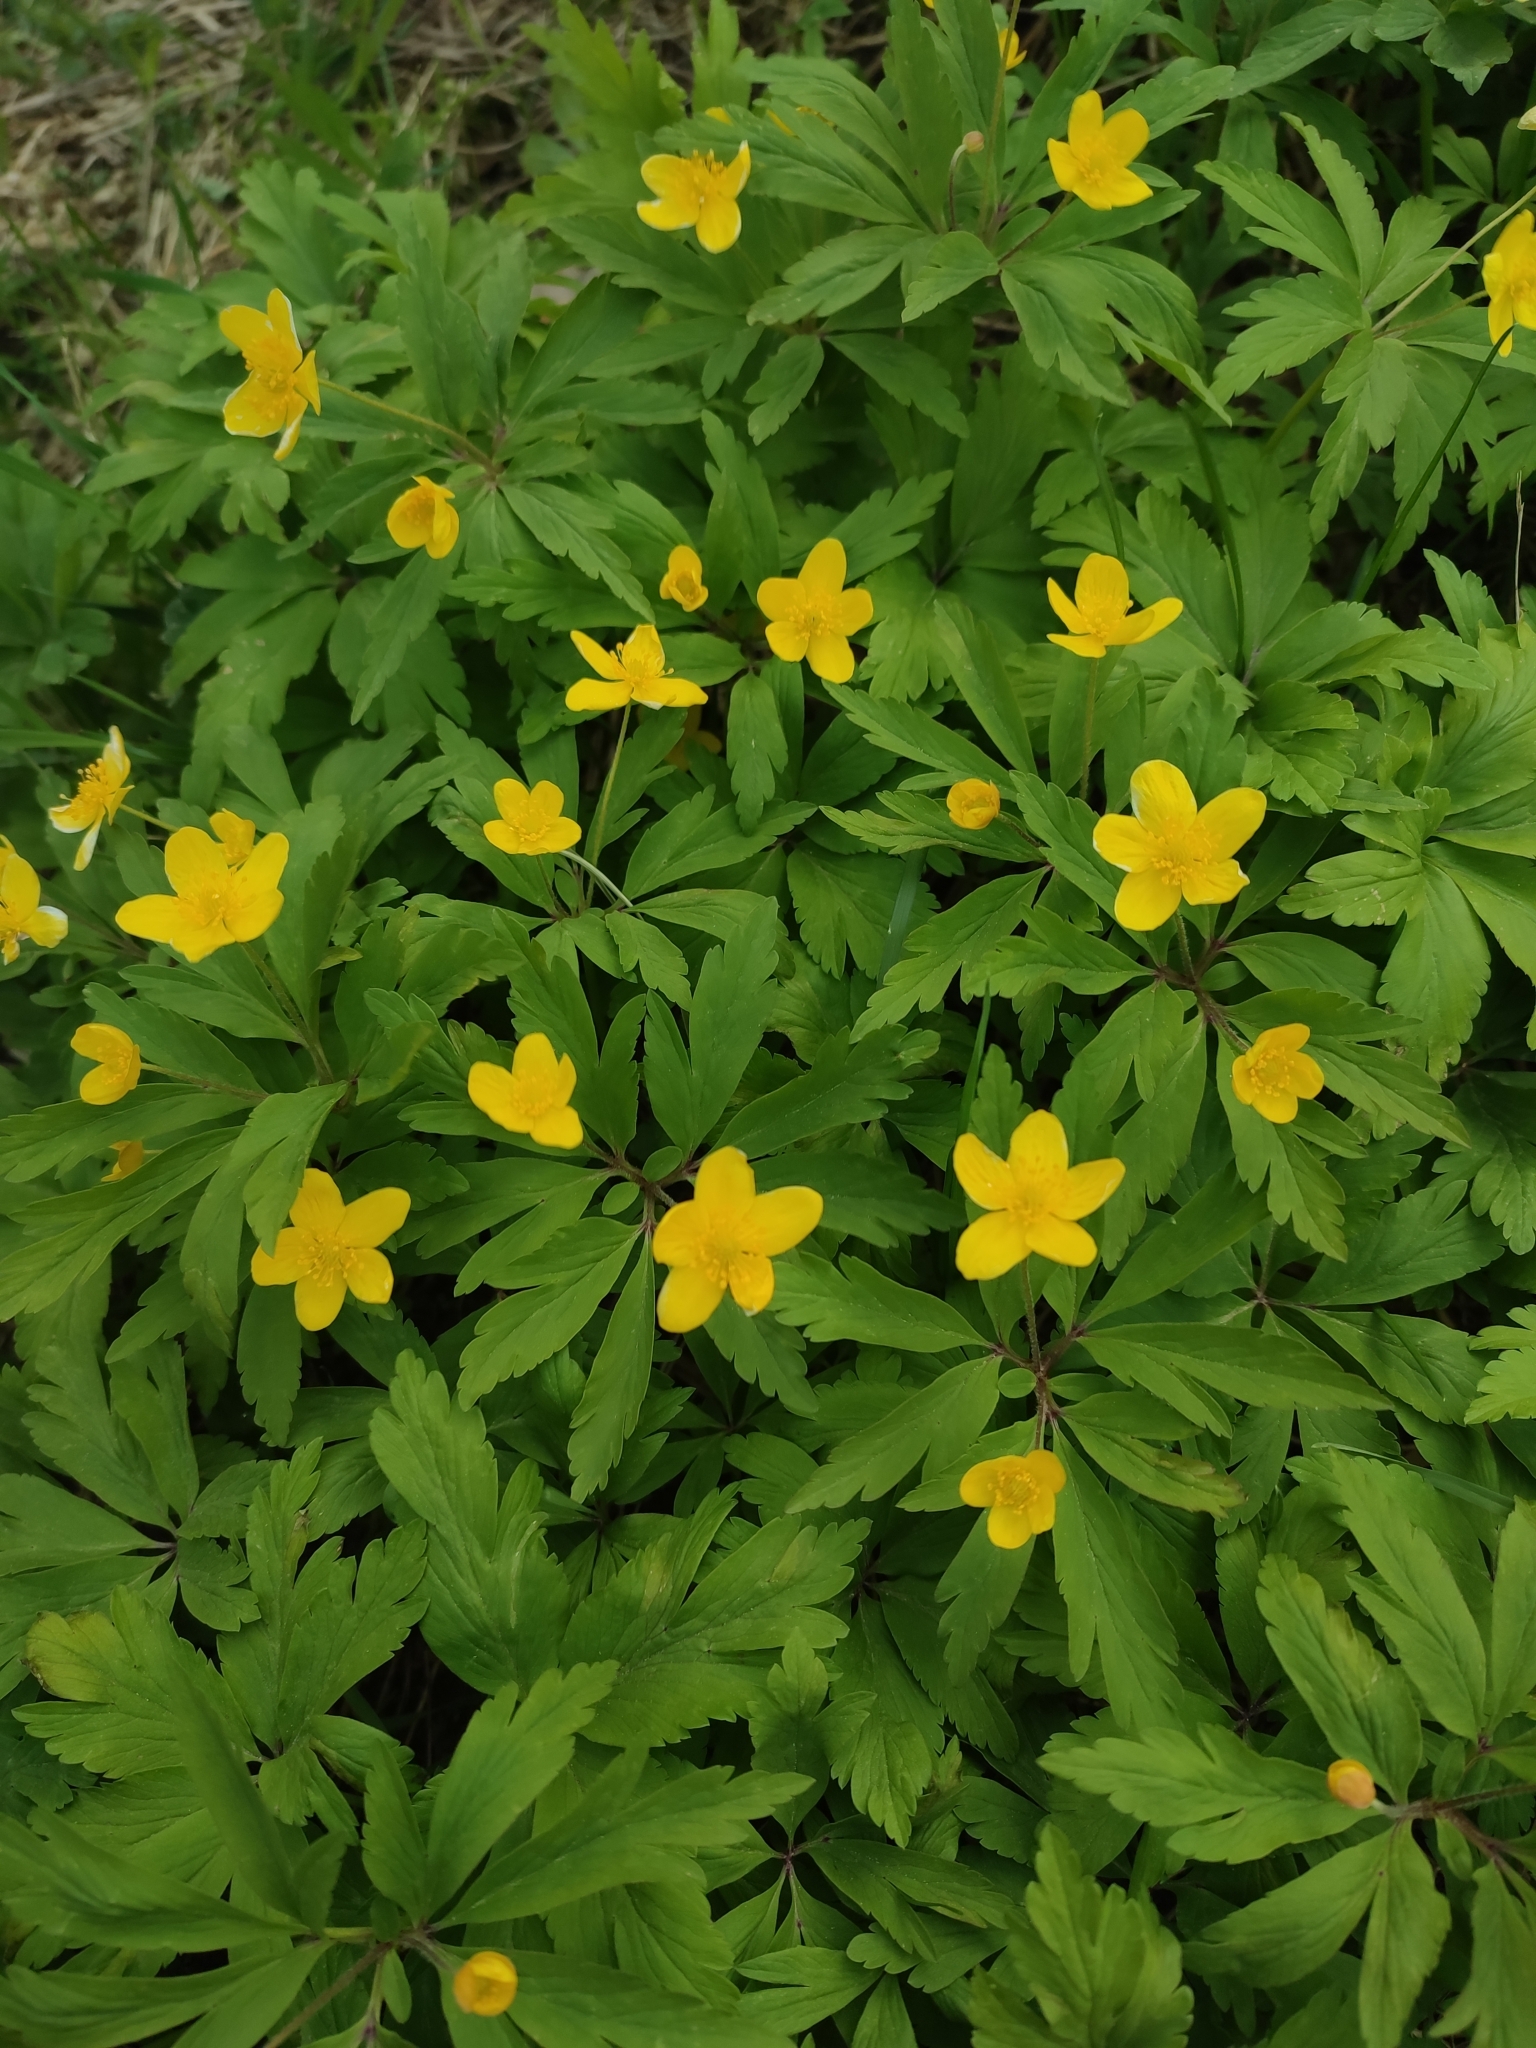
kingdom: Plantae
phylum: Tracheophyta
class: Magnoliopsida
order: Ranunculales
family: Ranunculaceae
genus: Anemone
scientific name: Anemone ranunculoides
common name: Yellow anemone
